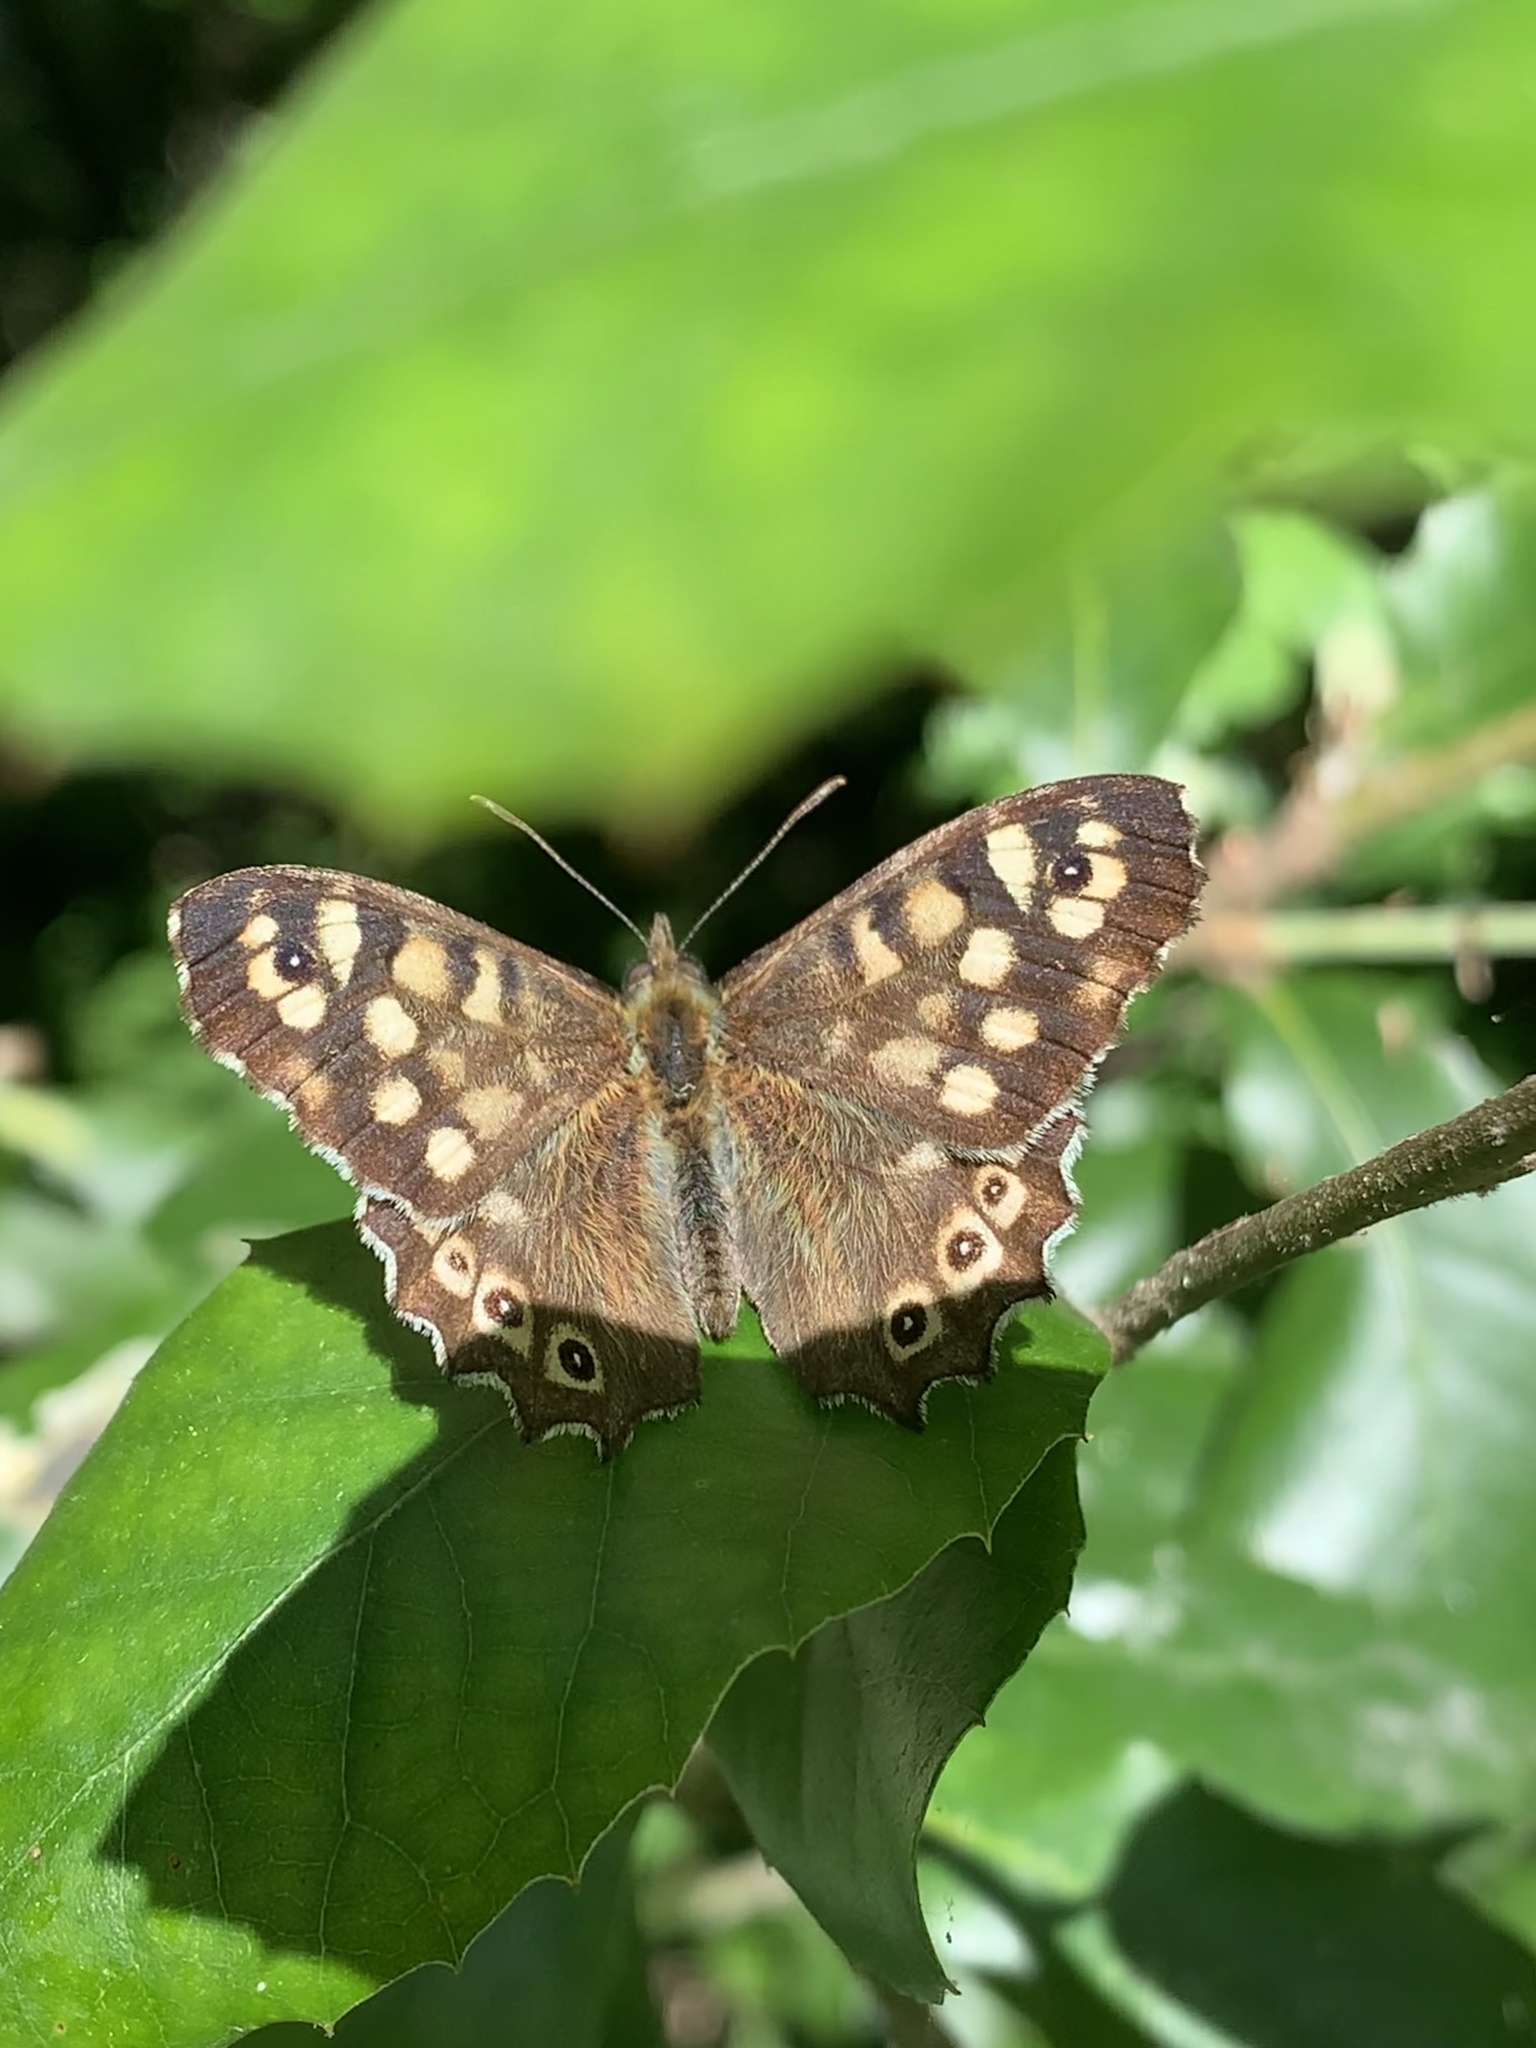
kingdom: Animalia
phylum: Arthropoda
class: Insecta
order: Lepidoptera
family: Nymphalidae
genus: Pararge
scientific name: Pararge aegeria
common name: Speckled wood
